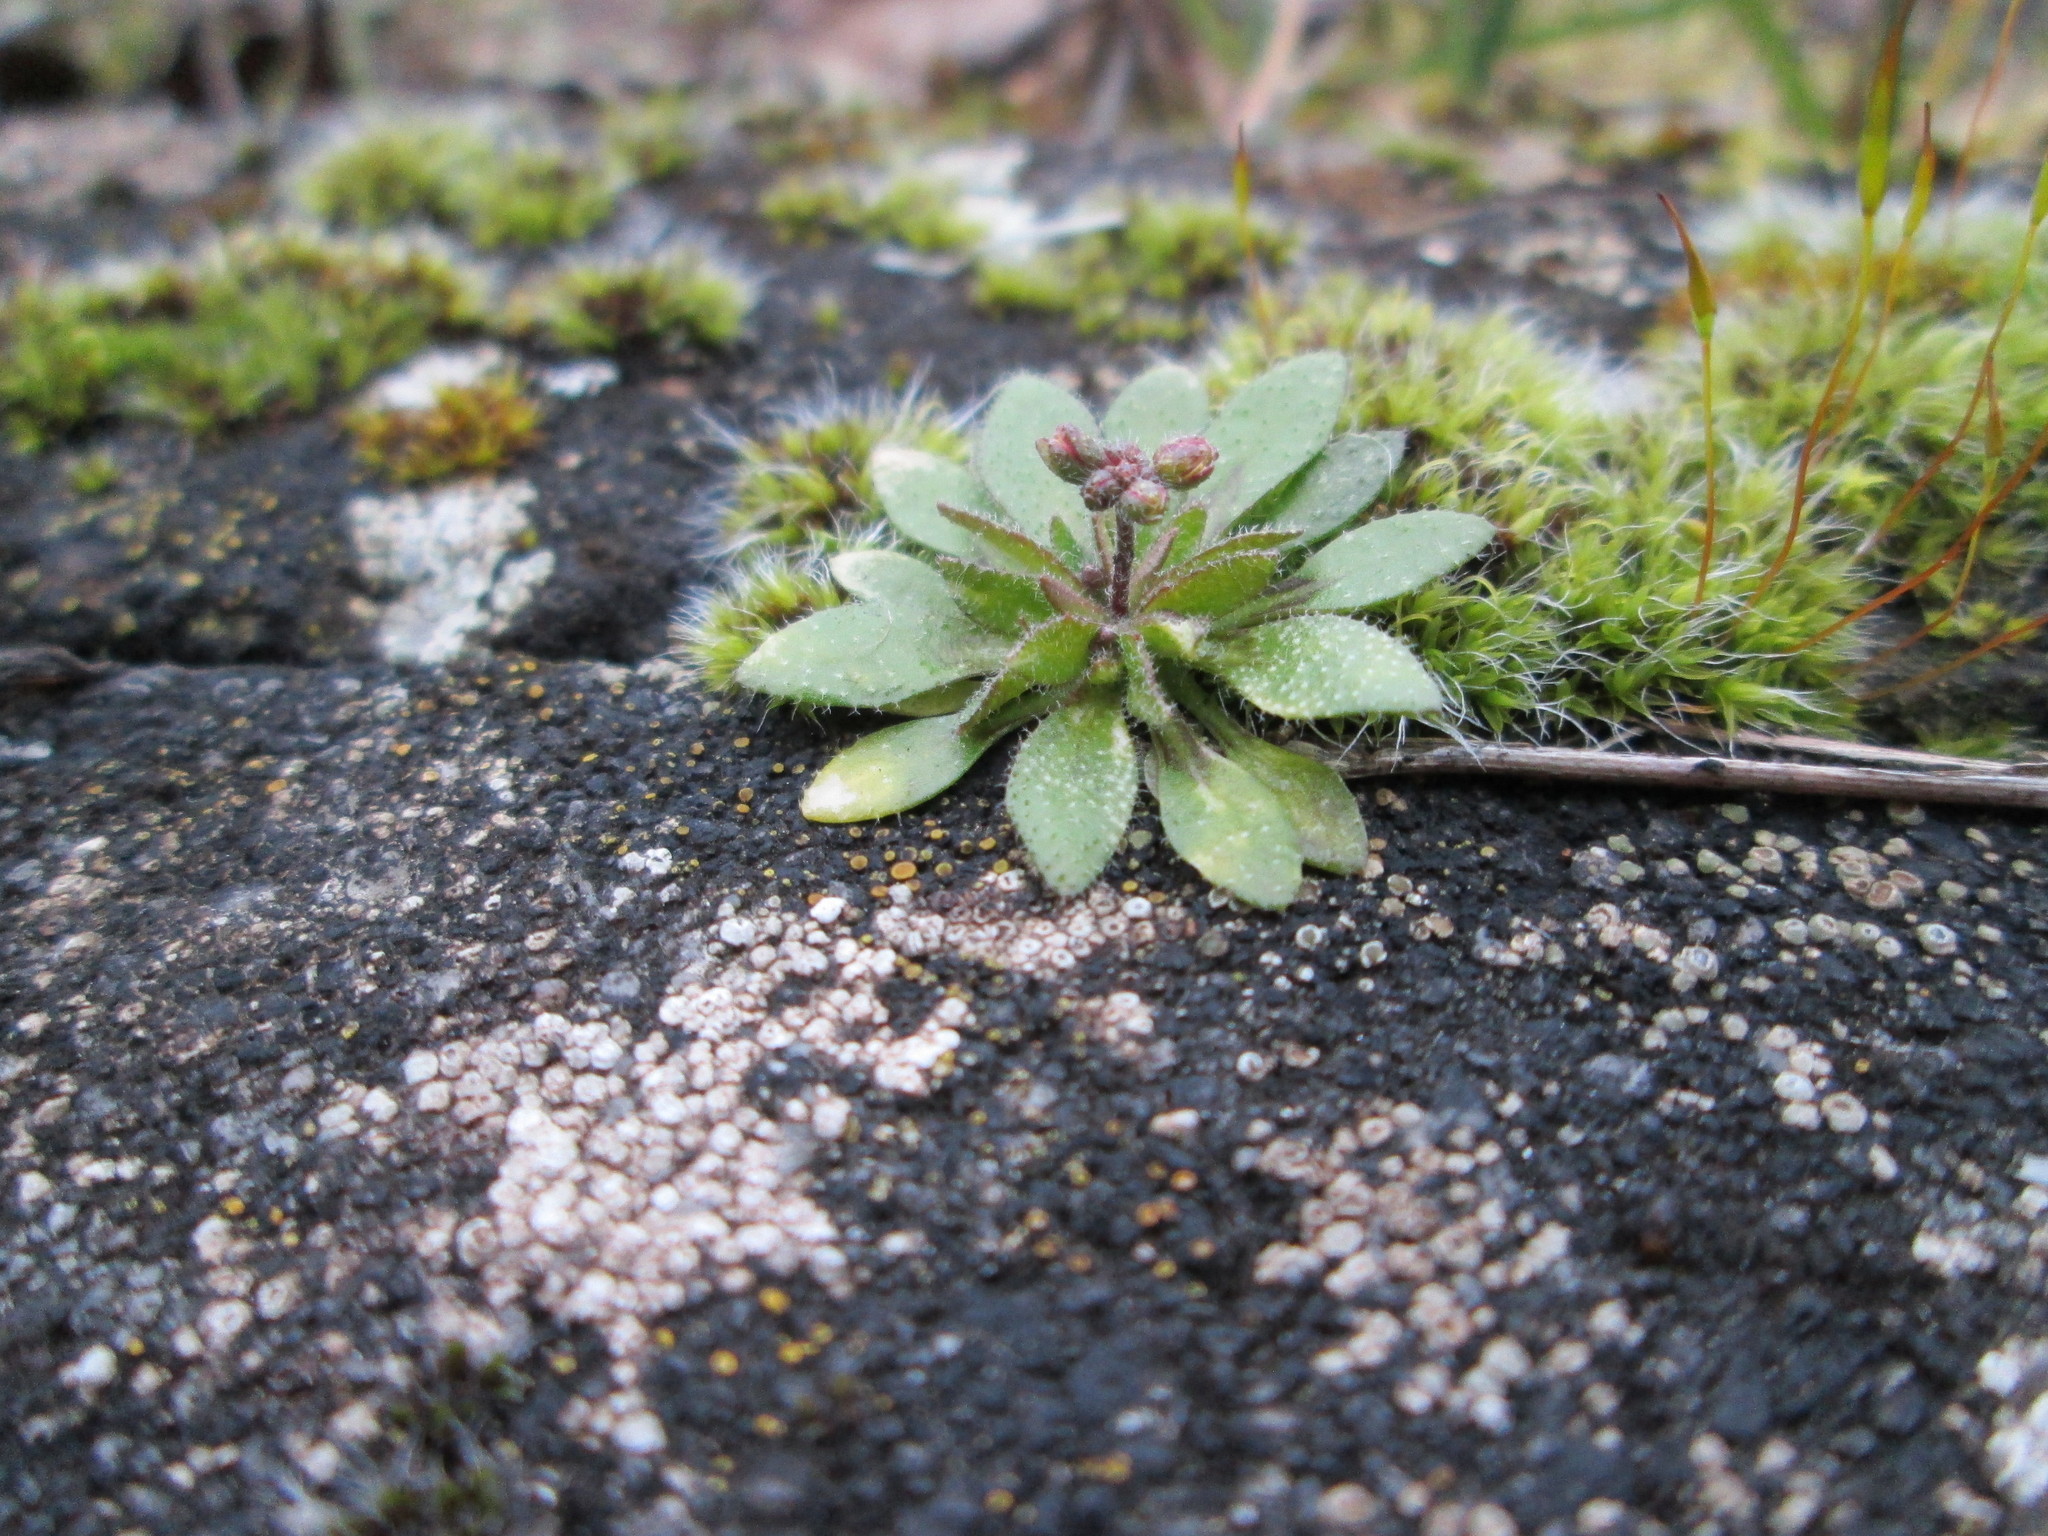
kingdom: Plantae
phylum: Tracheophyta
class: Magnoliopsida
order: Brassicales
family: Brassicaceae
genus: Draba
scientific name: Draba verna
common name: Spring draba
